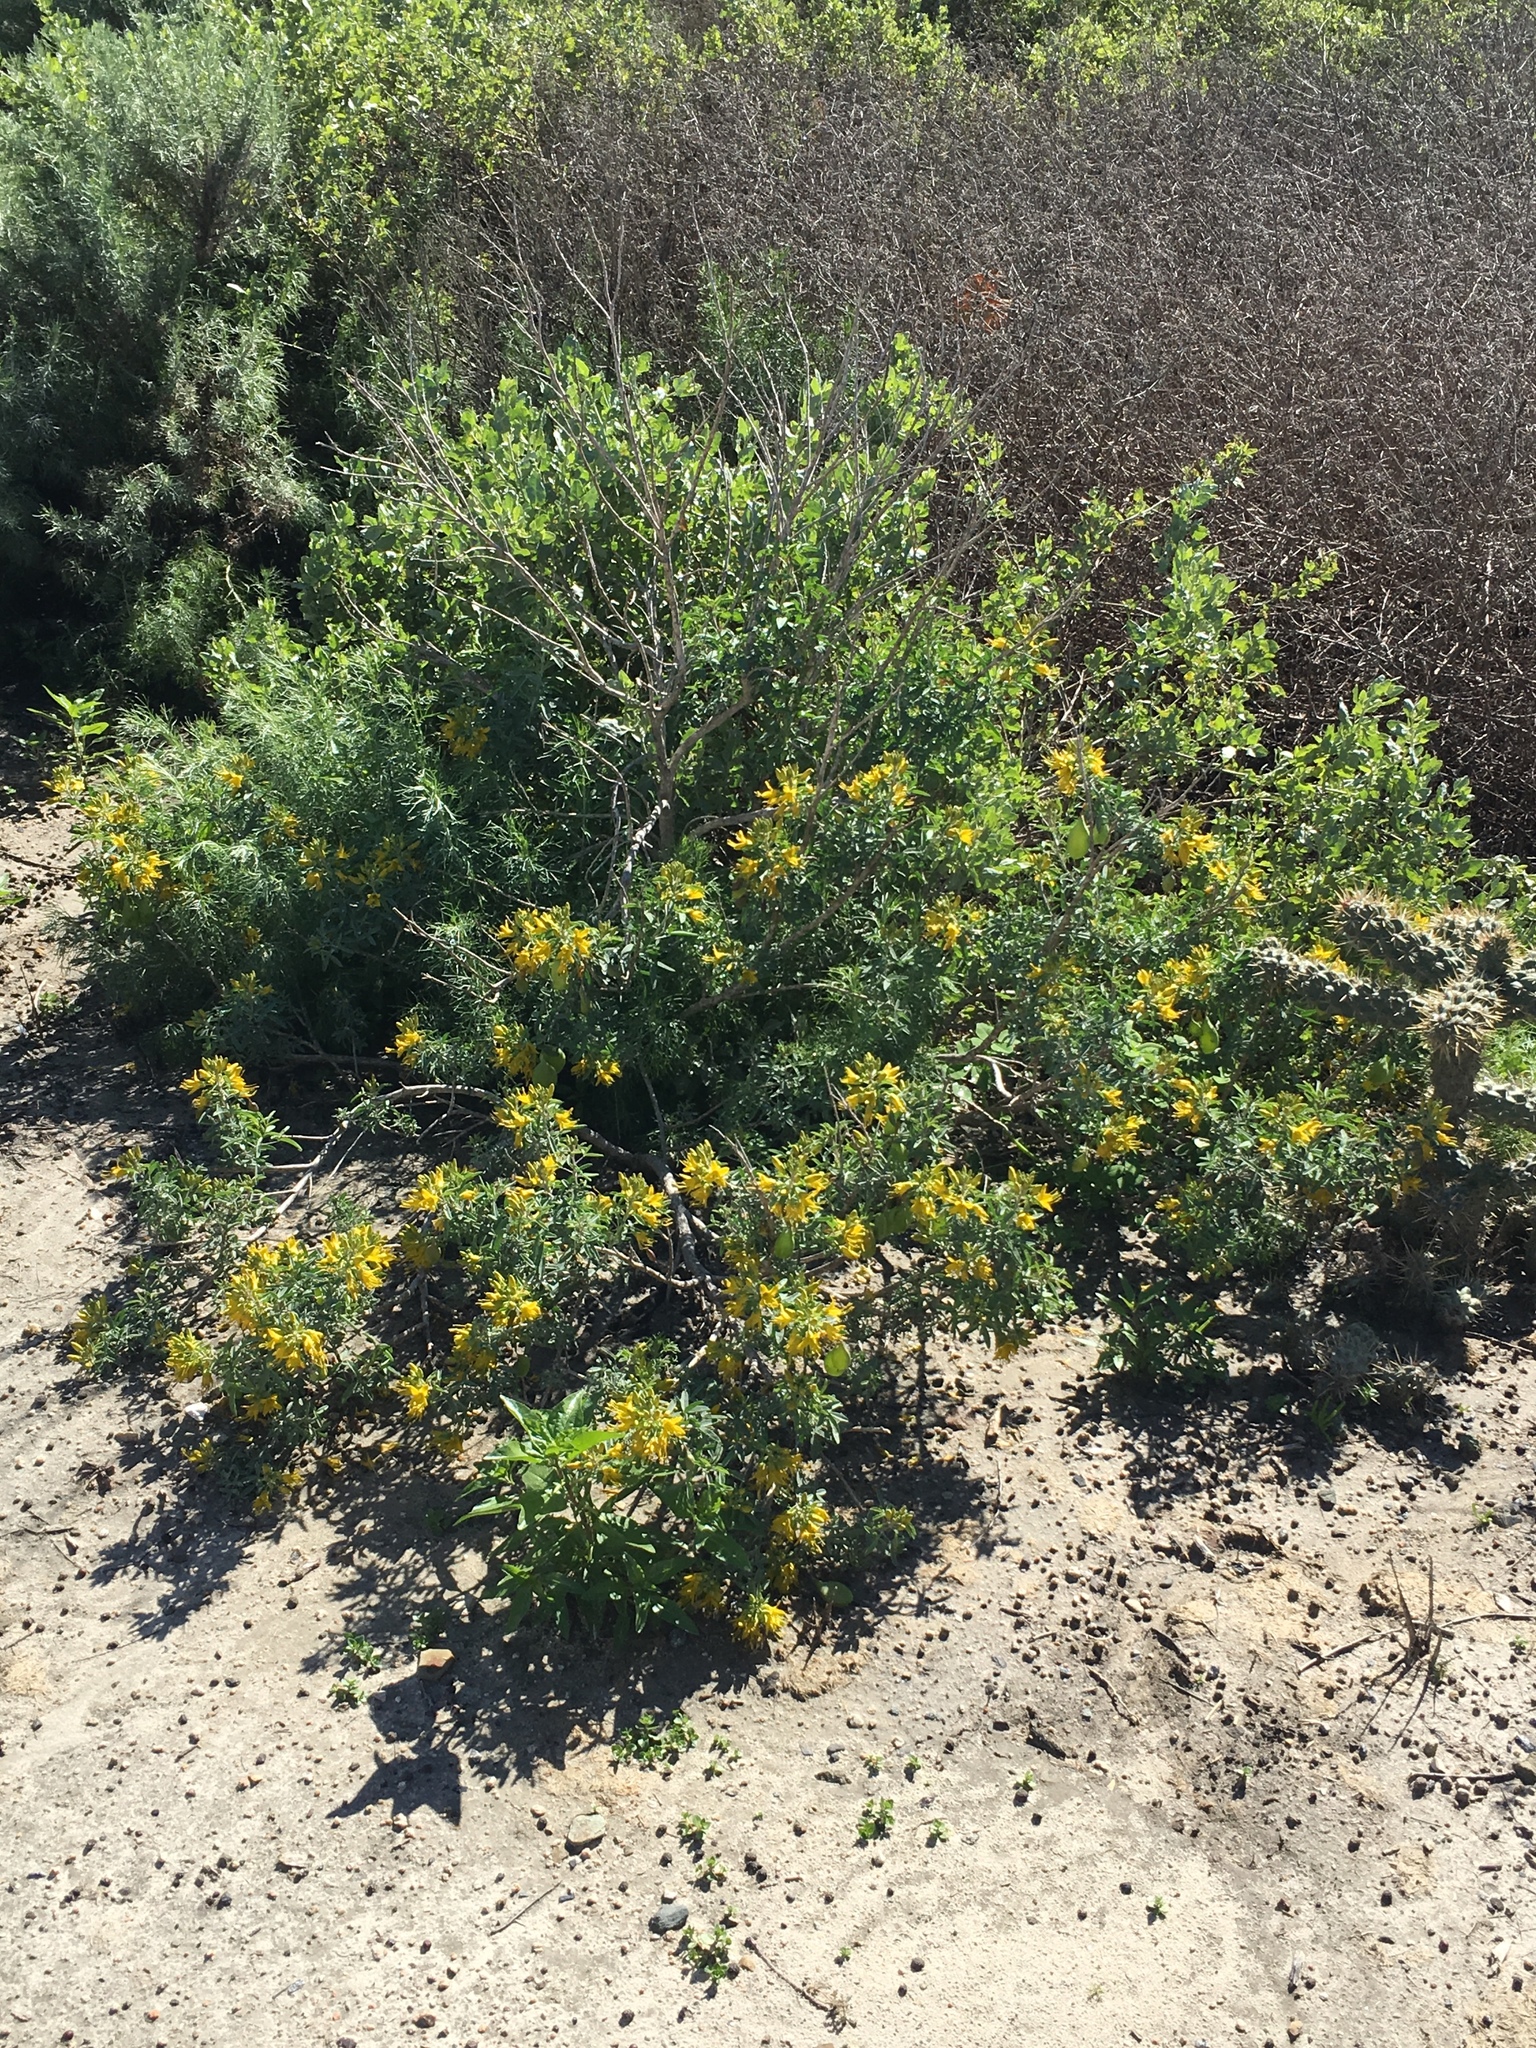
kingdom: Plantae
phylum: Tracheophyta
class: Magnoliopsida
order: Brassicales
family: Cleomaceae
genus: Cleomella
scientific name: Cleomella arborea
